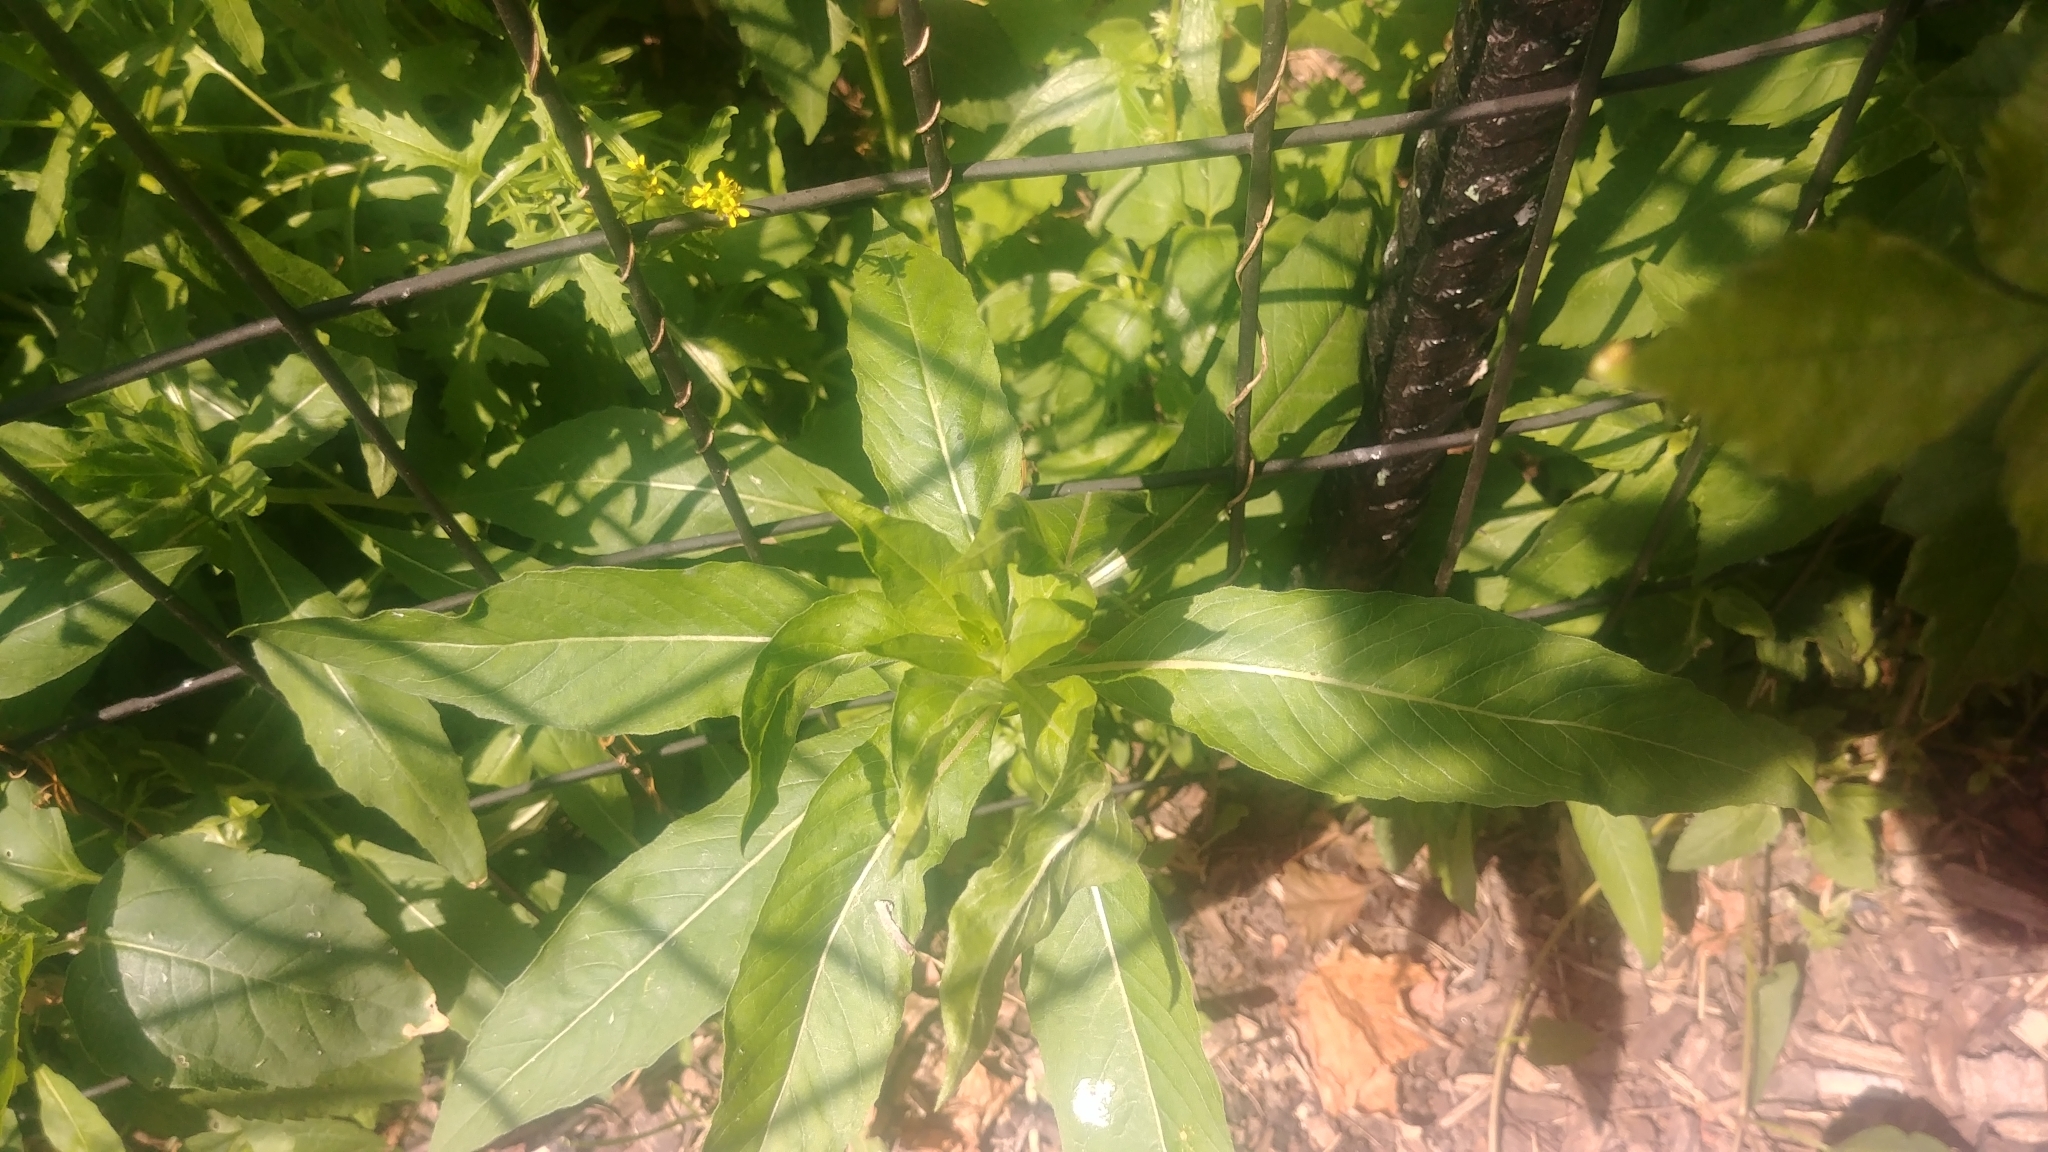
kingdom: Plantae
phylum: Tracheophyta
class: Magnoliopsida
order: Myrtales
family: Onagraceae
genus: Oenothera
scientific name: Oenothera biennis
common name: Common evening-primrose
